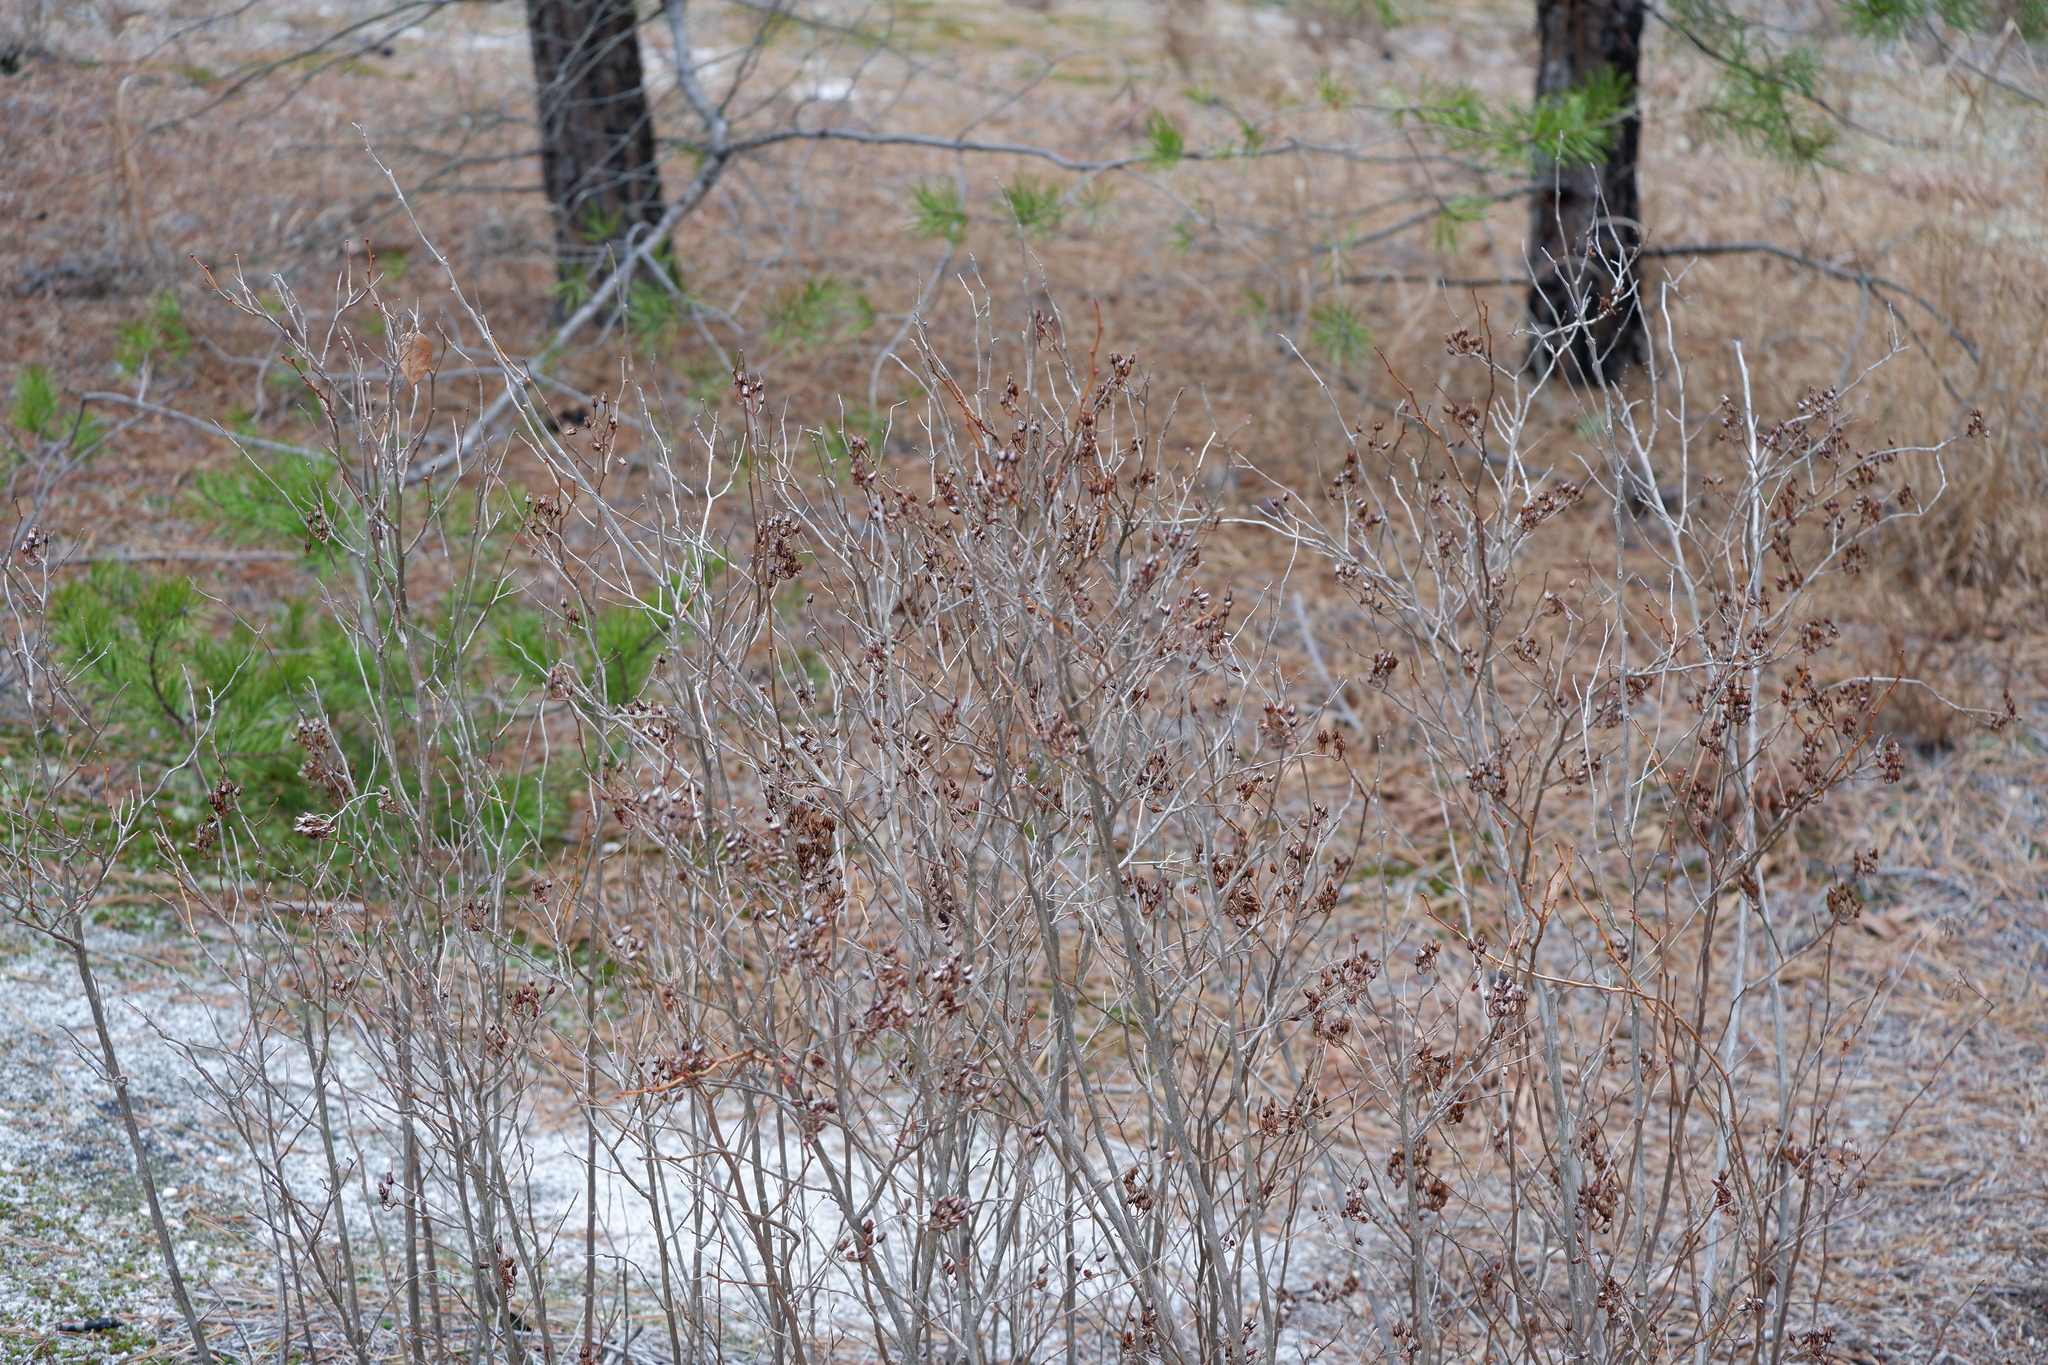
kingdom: Plantae
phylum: Tracheophyta
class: Magnoliopsida
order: Ericales
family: Ericaceae
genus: Lyonia
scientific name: Lyonia mariana
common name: Staggerbush
